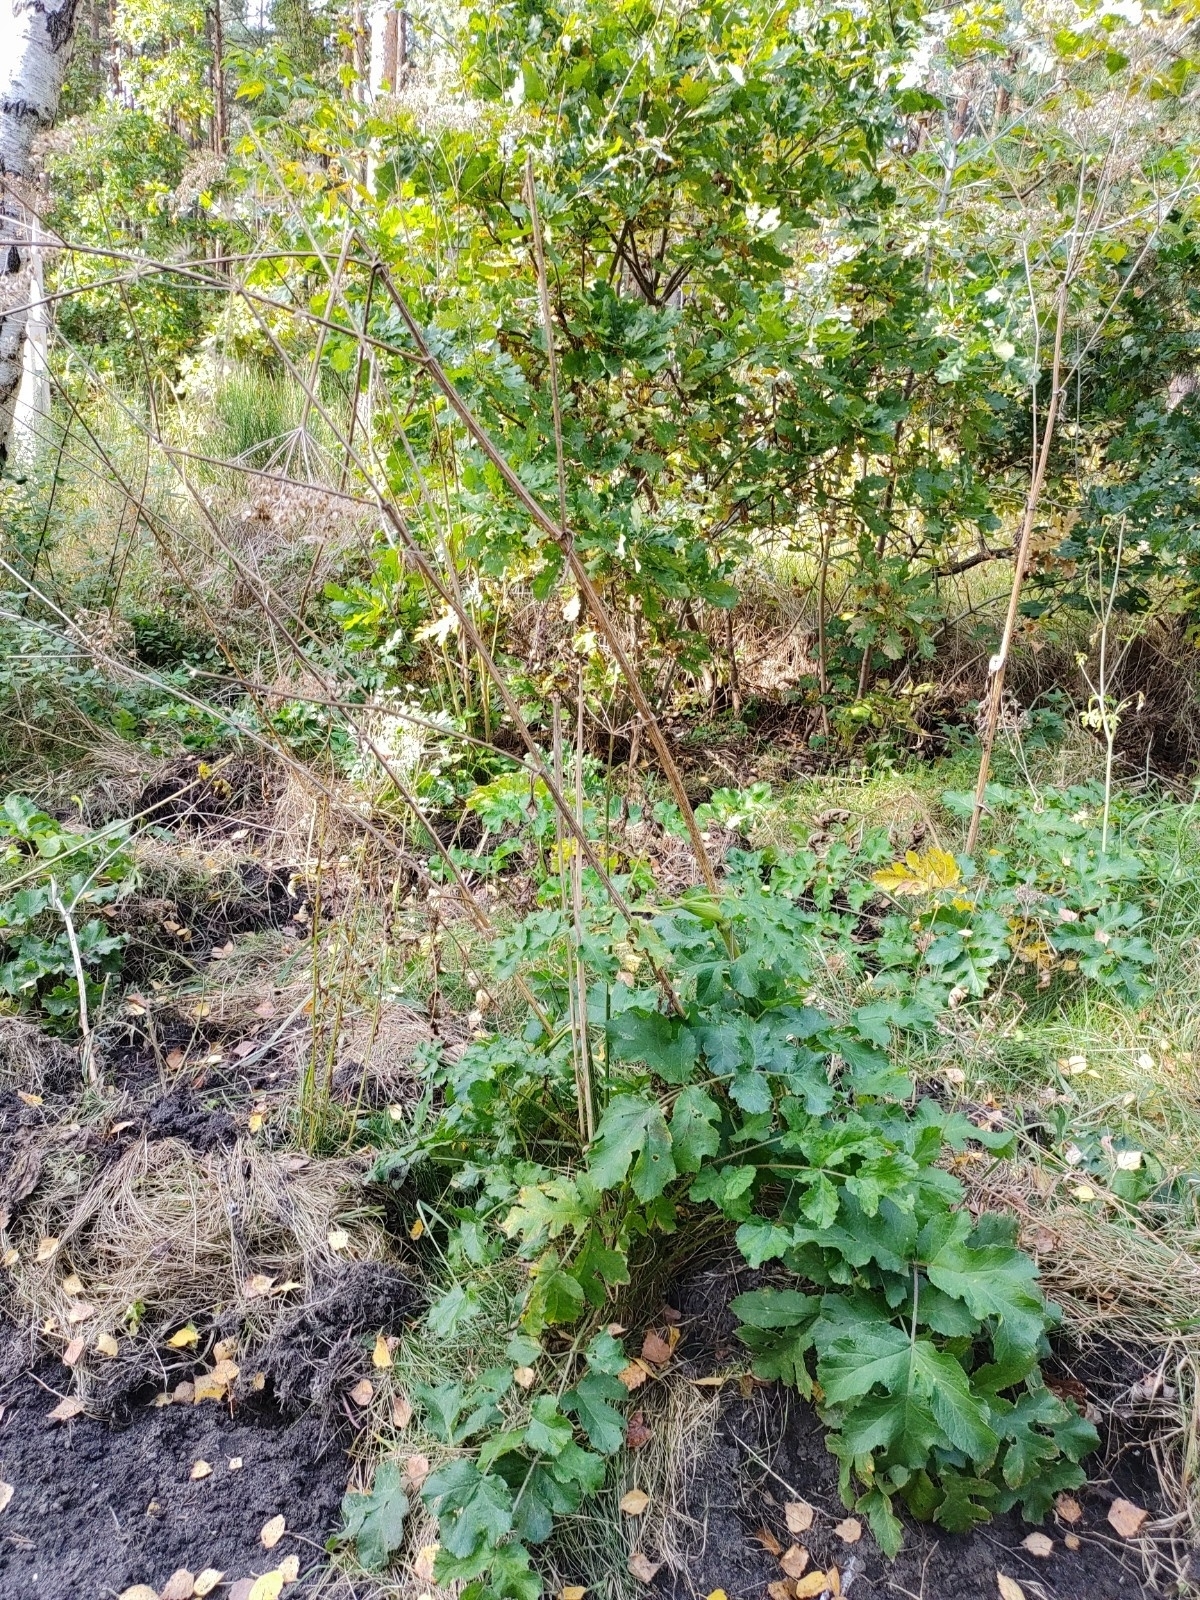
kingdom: Plantae
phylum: Tracheophyta
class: Magnoliopsida
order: Apiales
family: Apiaceae
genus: Heracleum
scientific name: Heracleum sphondylium
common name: Hogweed
